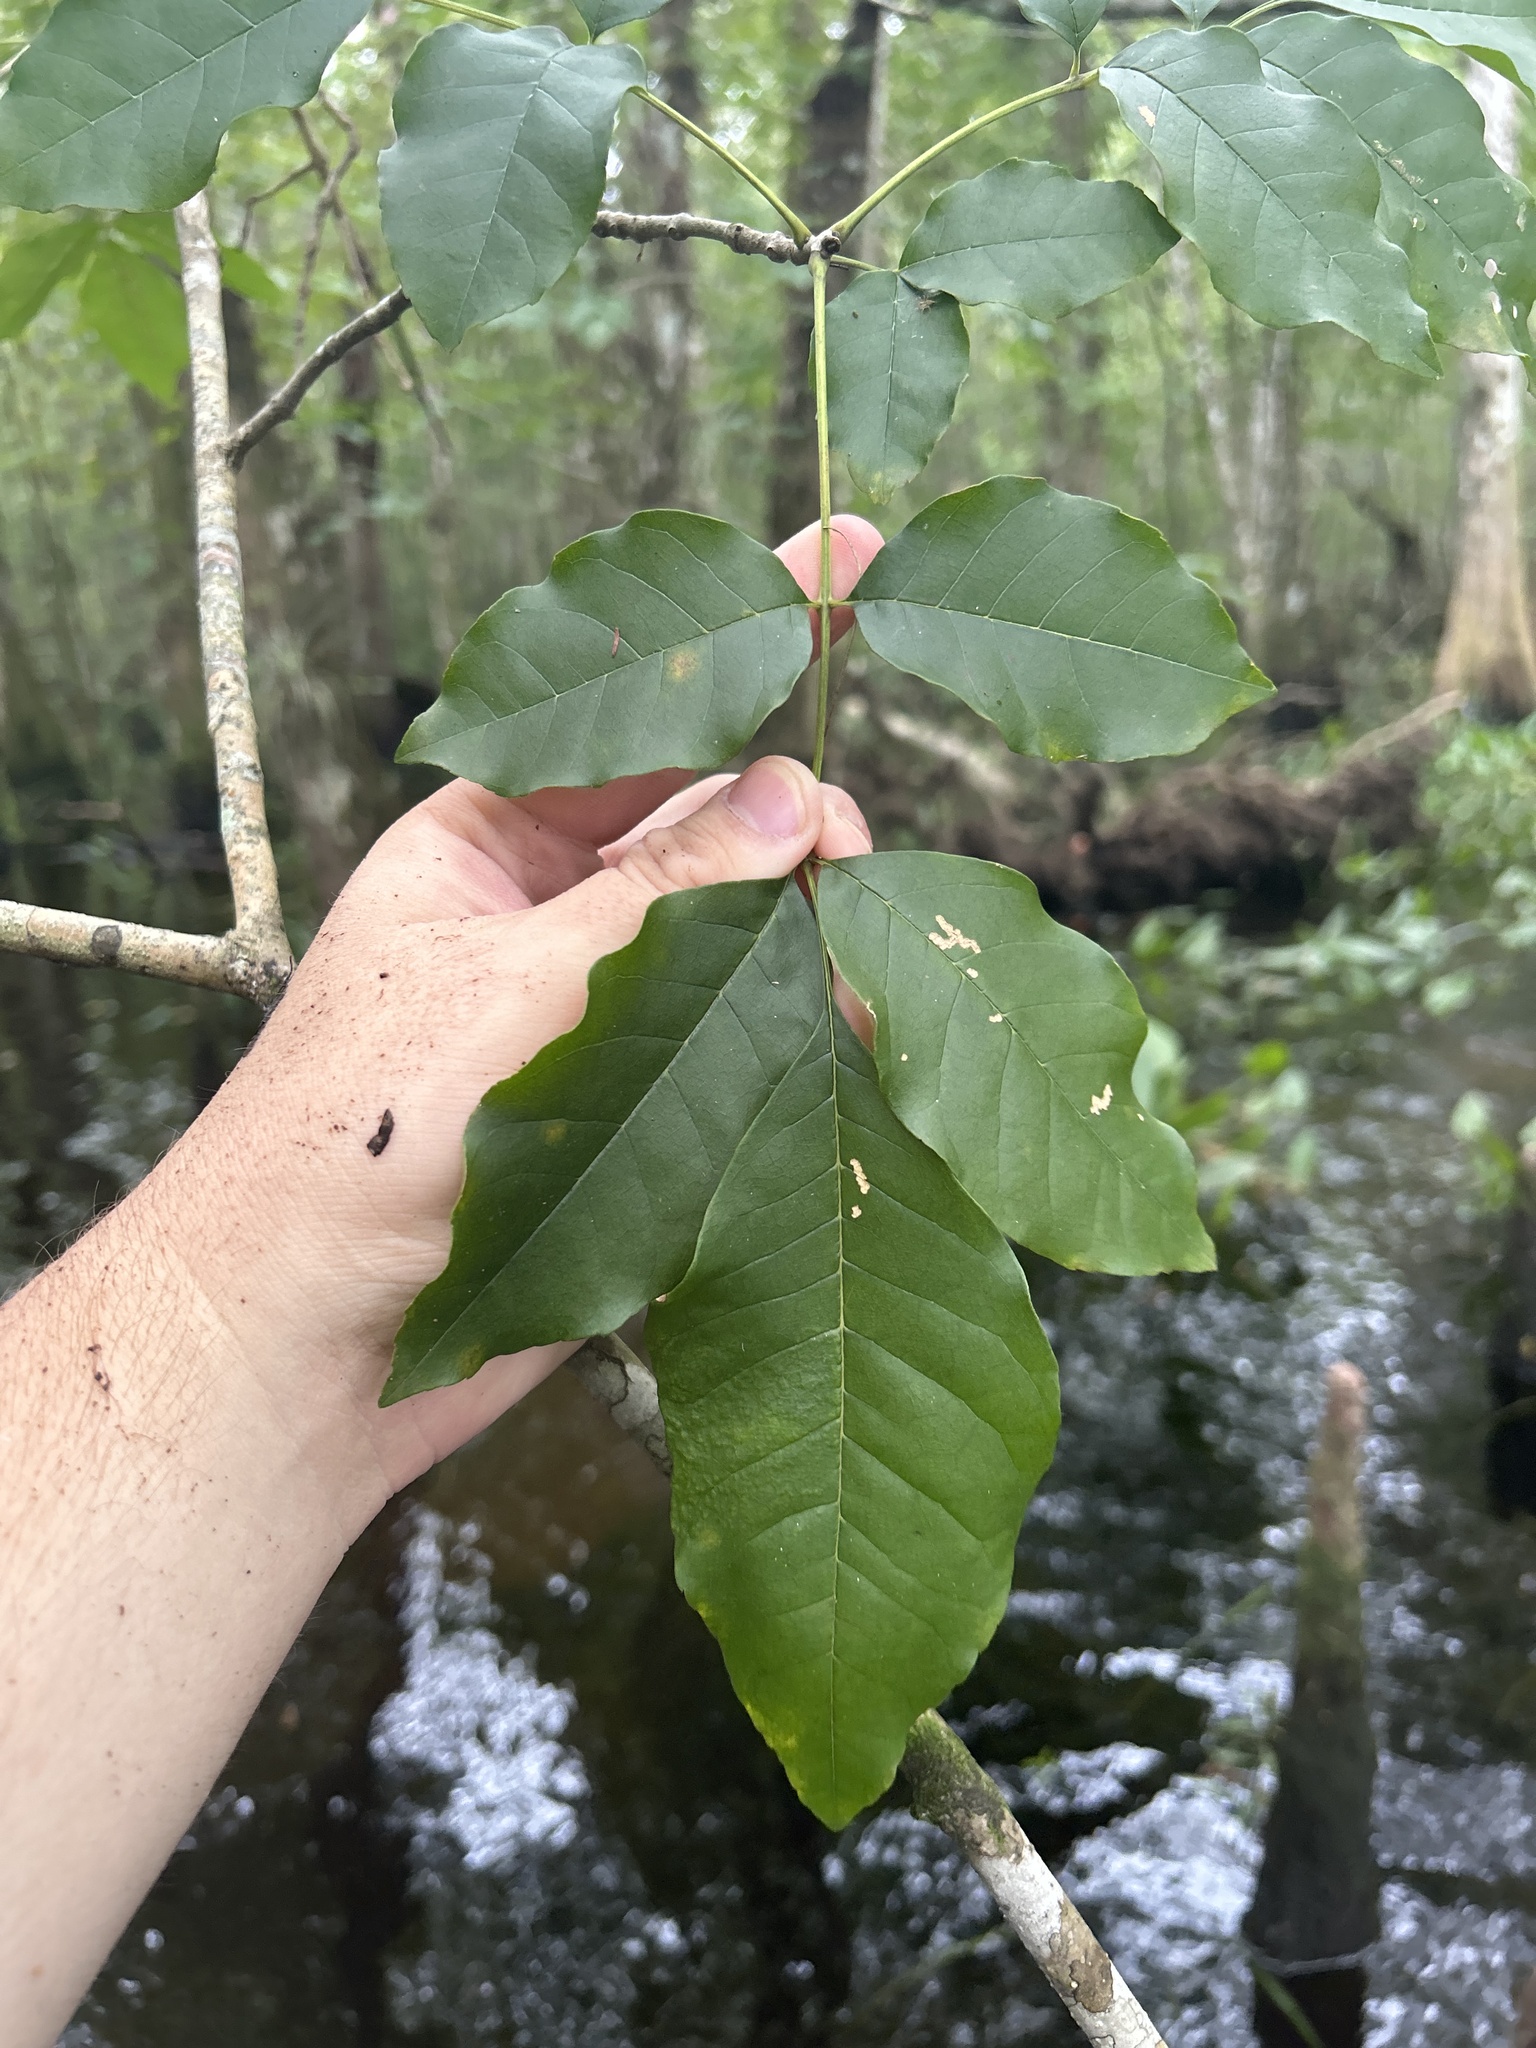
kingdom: Plantae
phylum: Tracheophyta
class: Magnoliopsida
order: Lamiales
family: Oleaceae
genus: Fraxinus
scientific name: Fraxinus caroliniana
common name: Carolina ash
